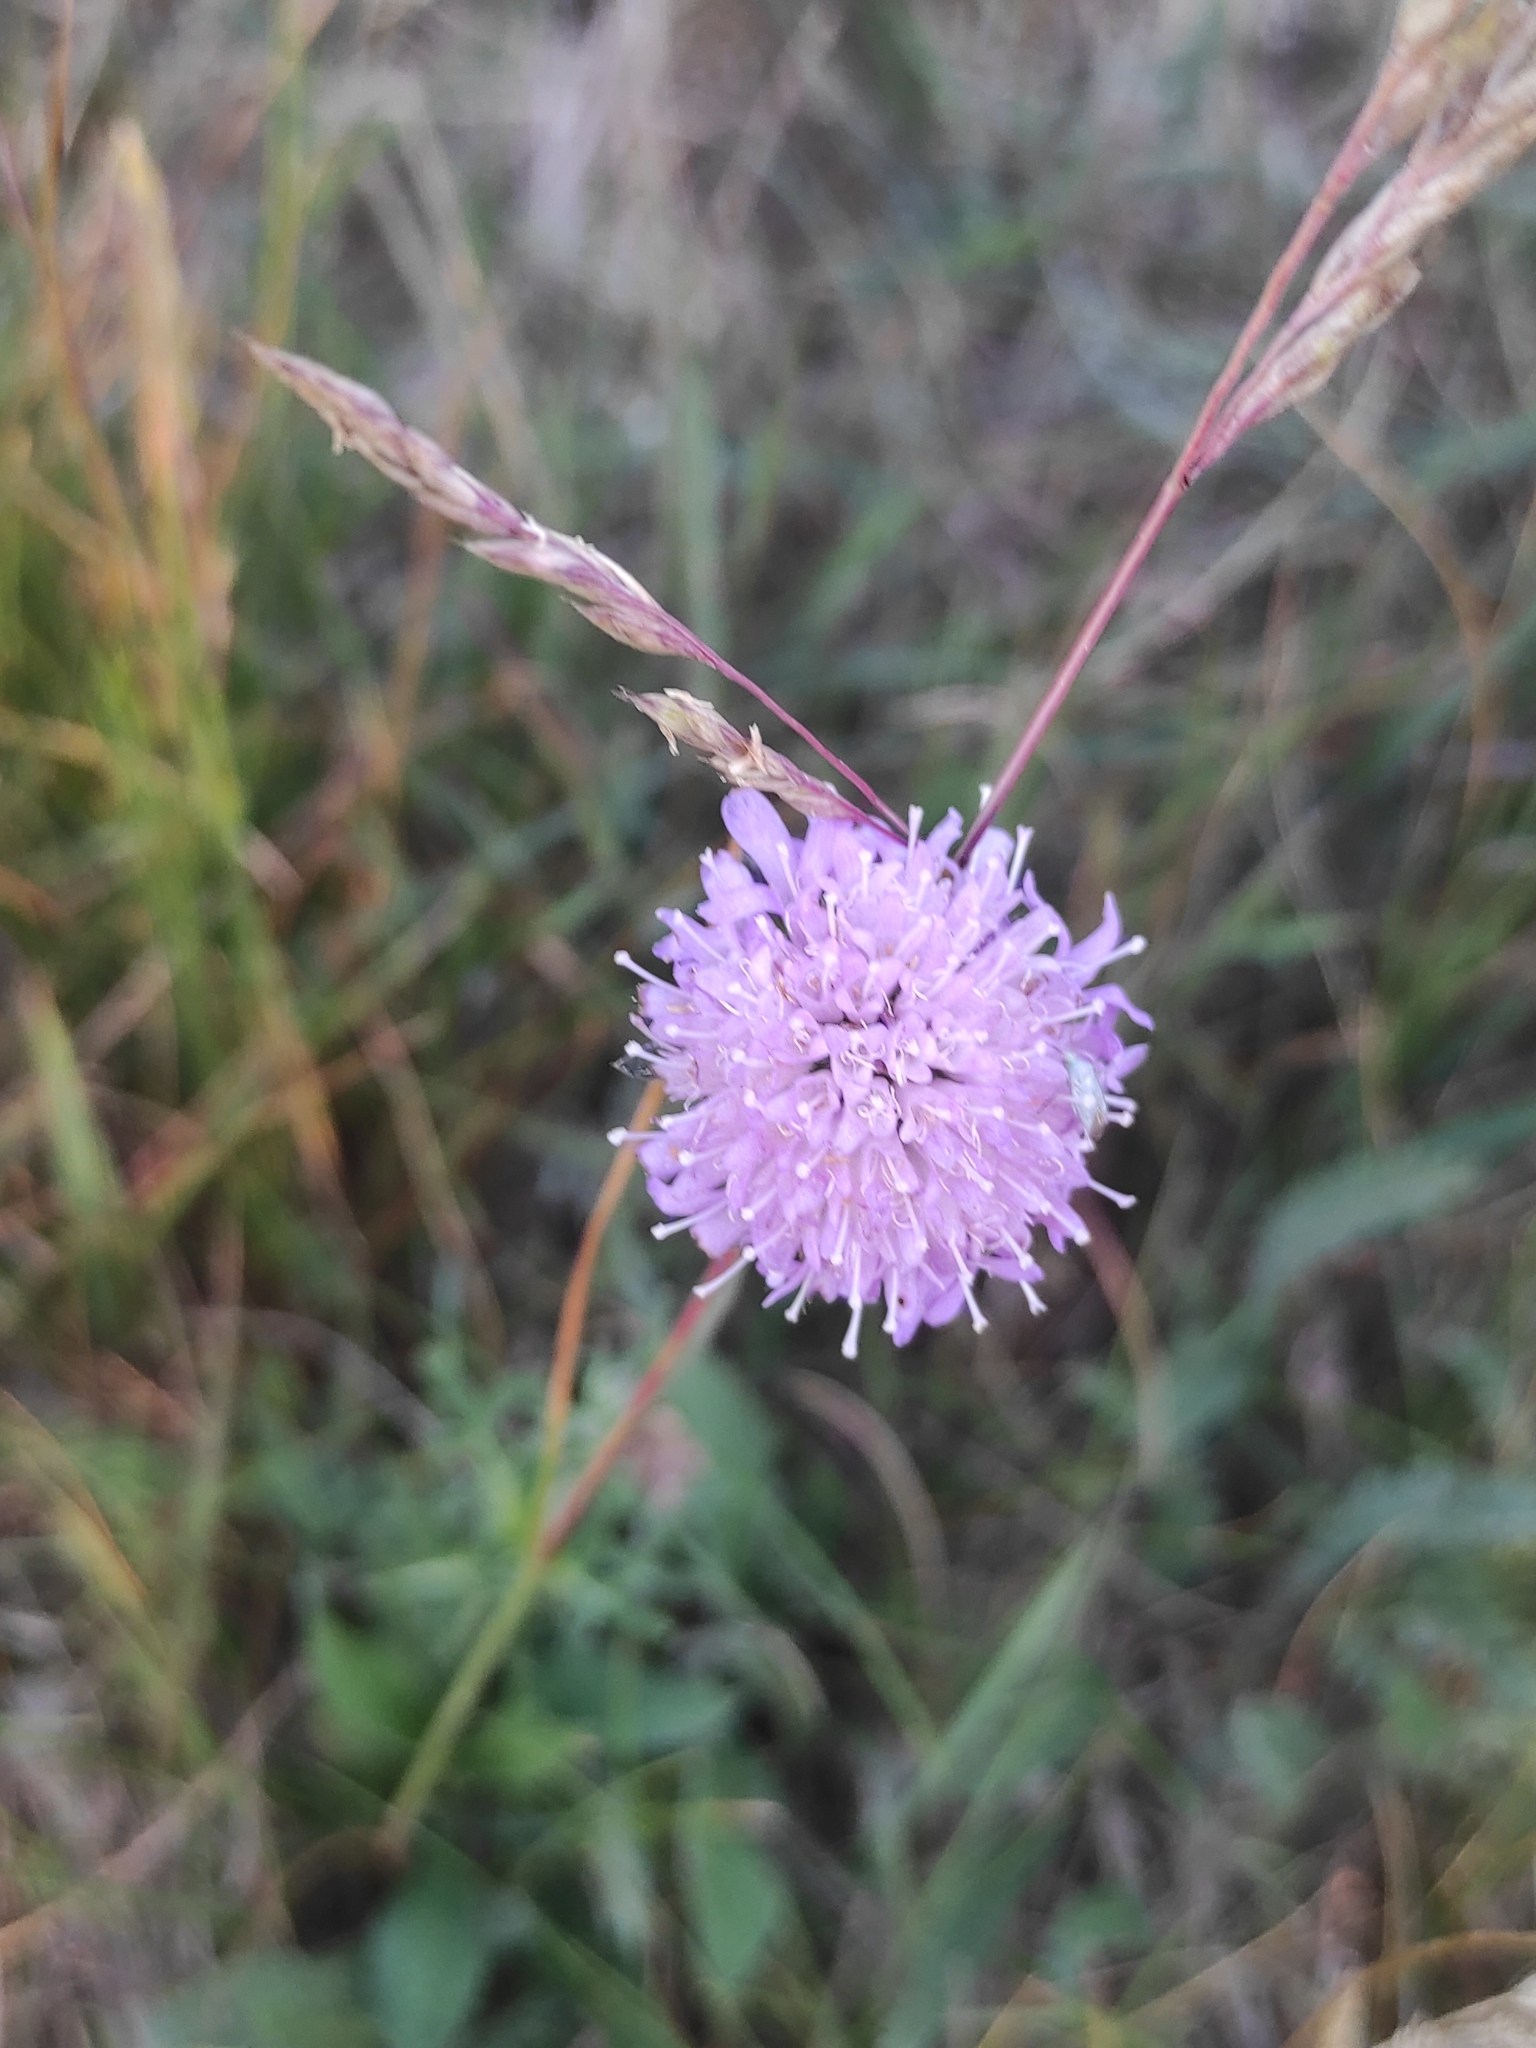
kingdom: Plantae
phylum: Tracheophyta
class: Magnoliopsida
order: Dipsacales
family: Caprifoliaceae
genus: Knautia
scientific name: Knautia arvensis
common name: Field scabiosa
